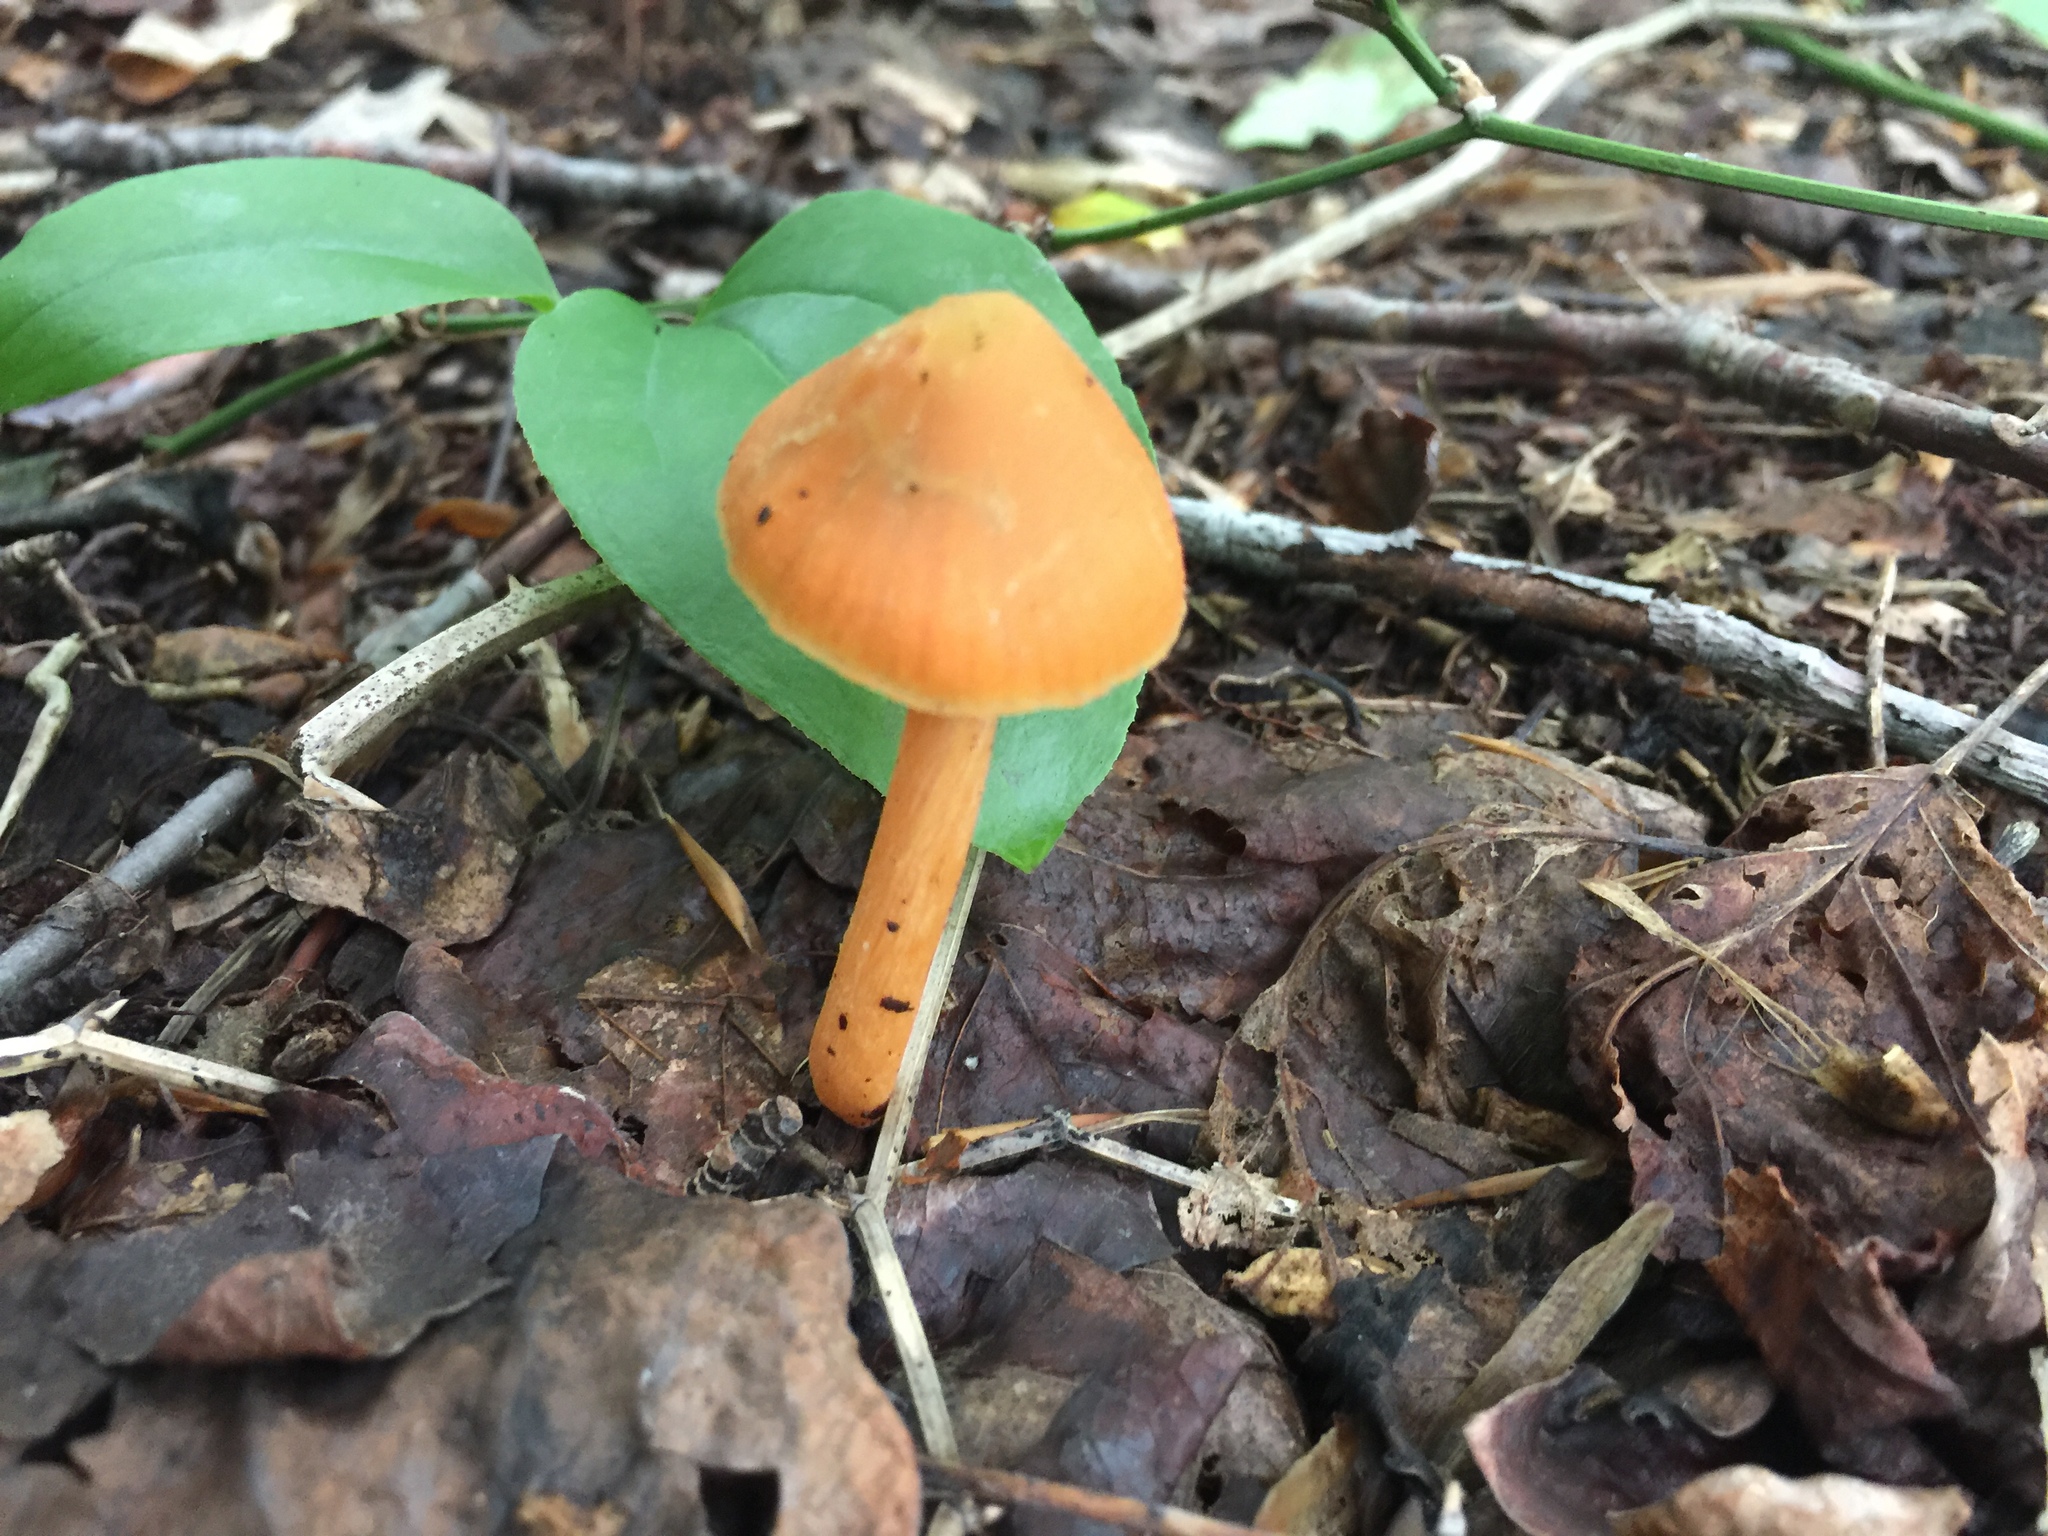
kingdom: Fungi
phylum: Basidiomycota
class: Agaricomycetes
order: Agaricales
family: Entolomataceae
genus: Entoloma
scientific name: Entoloma quadratum
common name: Salmon pinkgill
